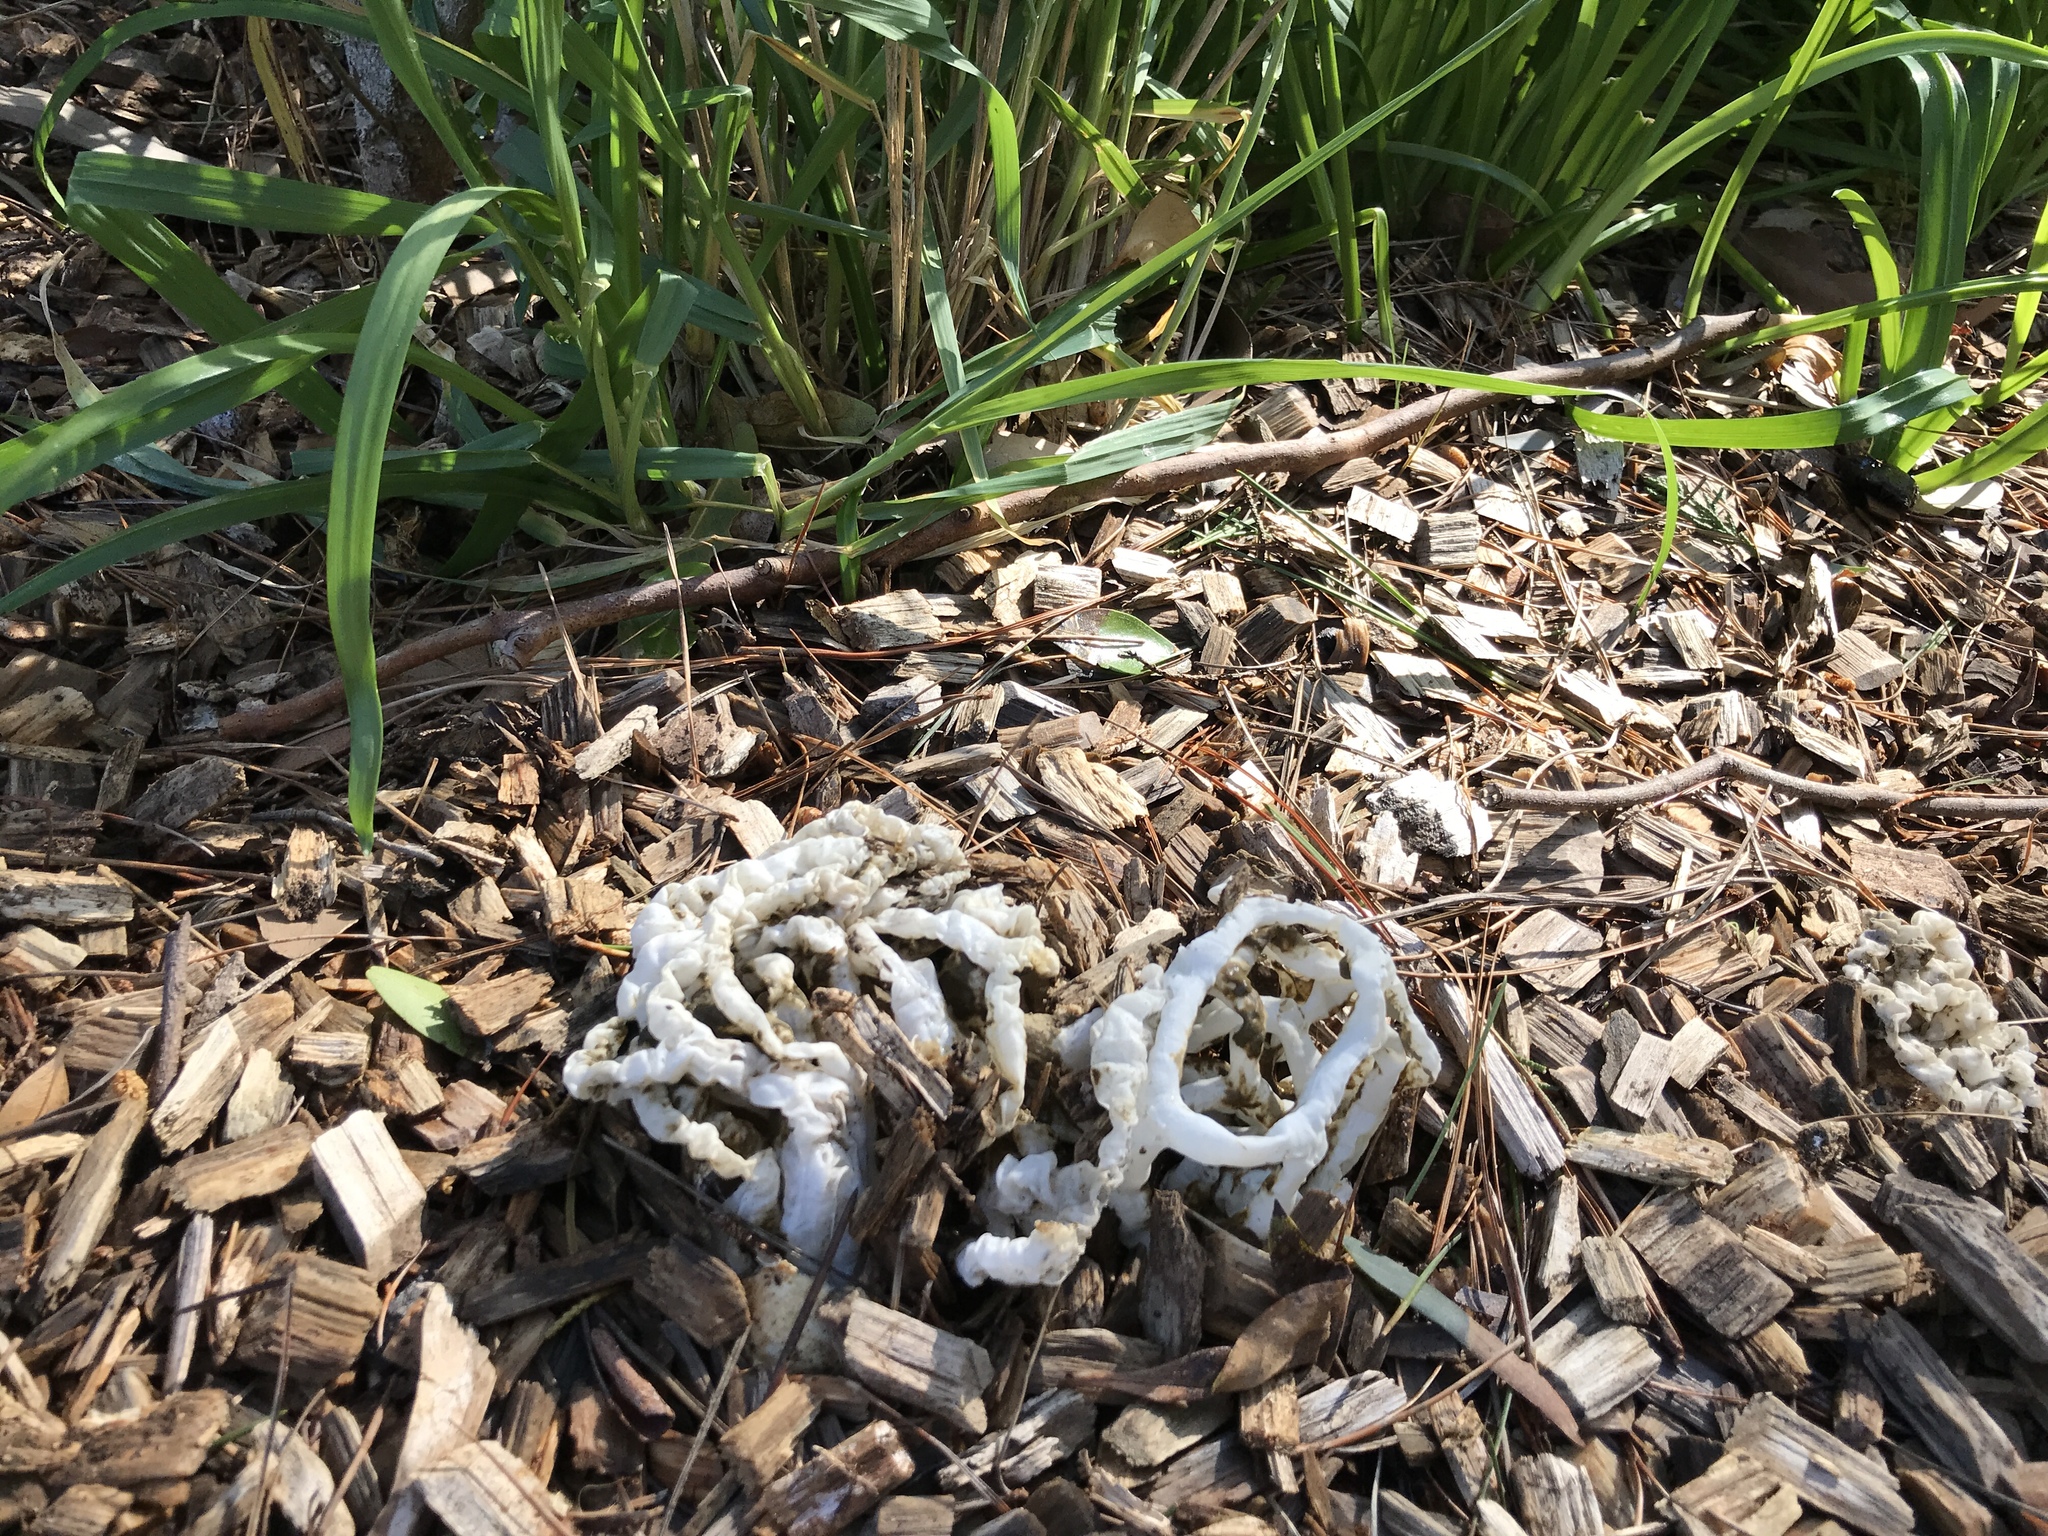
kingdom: Fungi
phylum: Basidiomycota
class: Agaricomycetes
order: Phallales
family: Phallaceae
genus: Ileodictyon
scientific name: Ileodictyon cibarium
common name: Basket fungus
